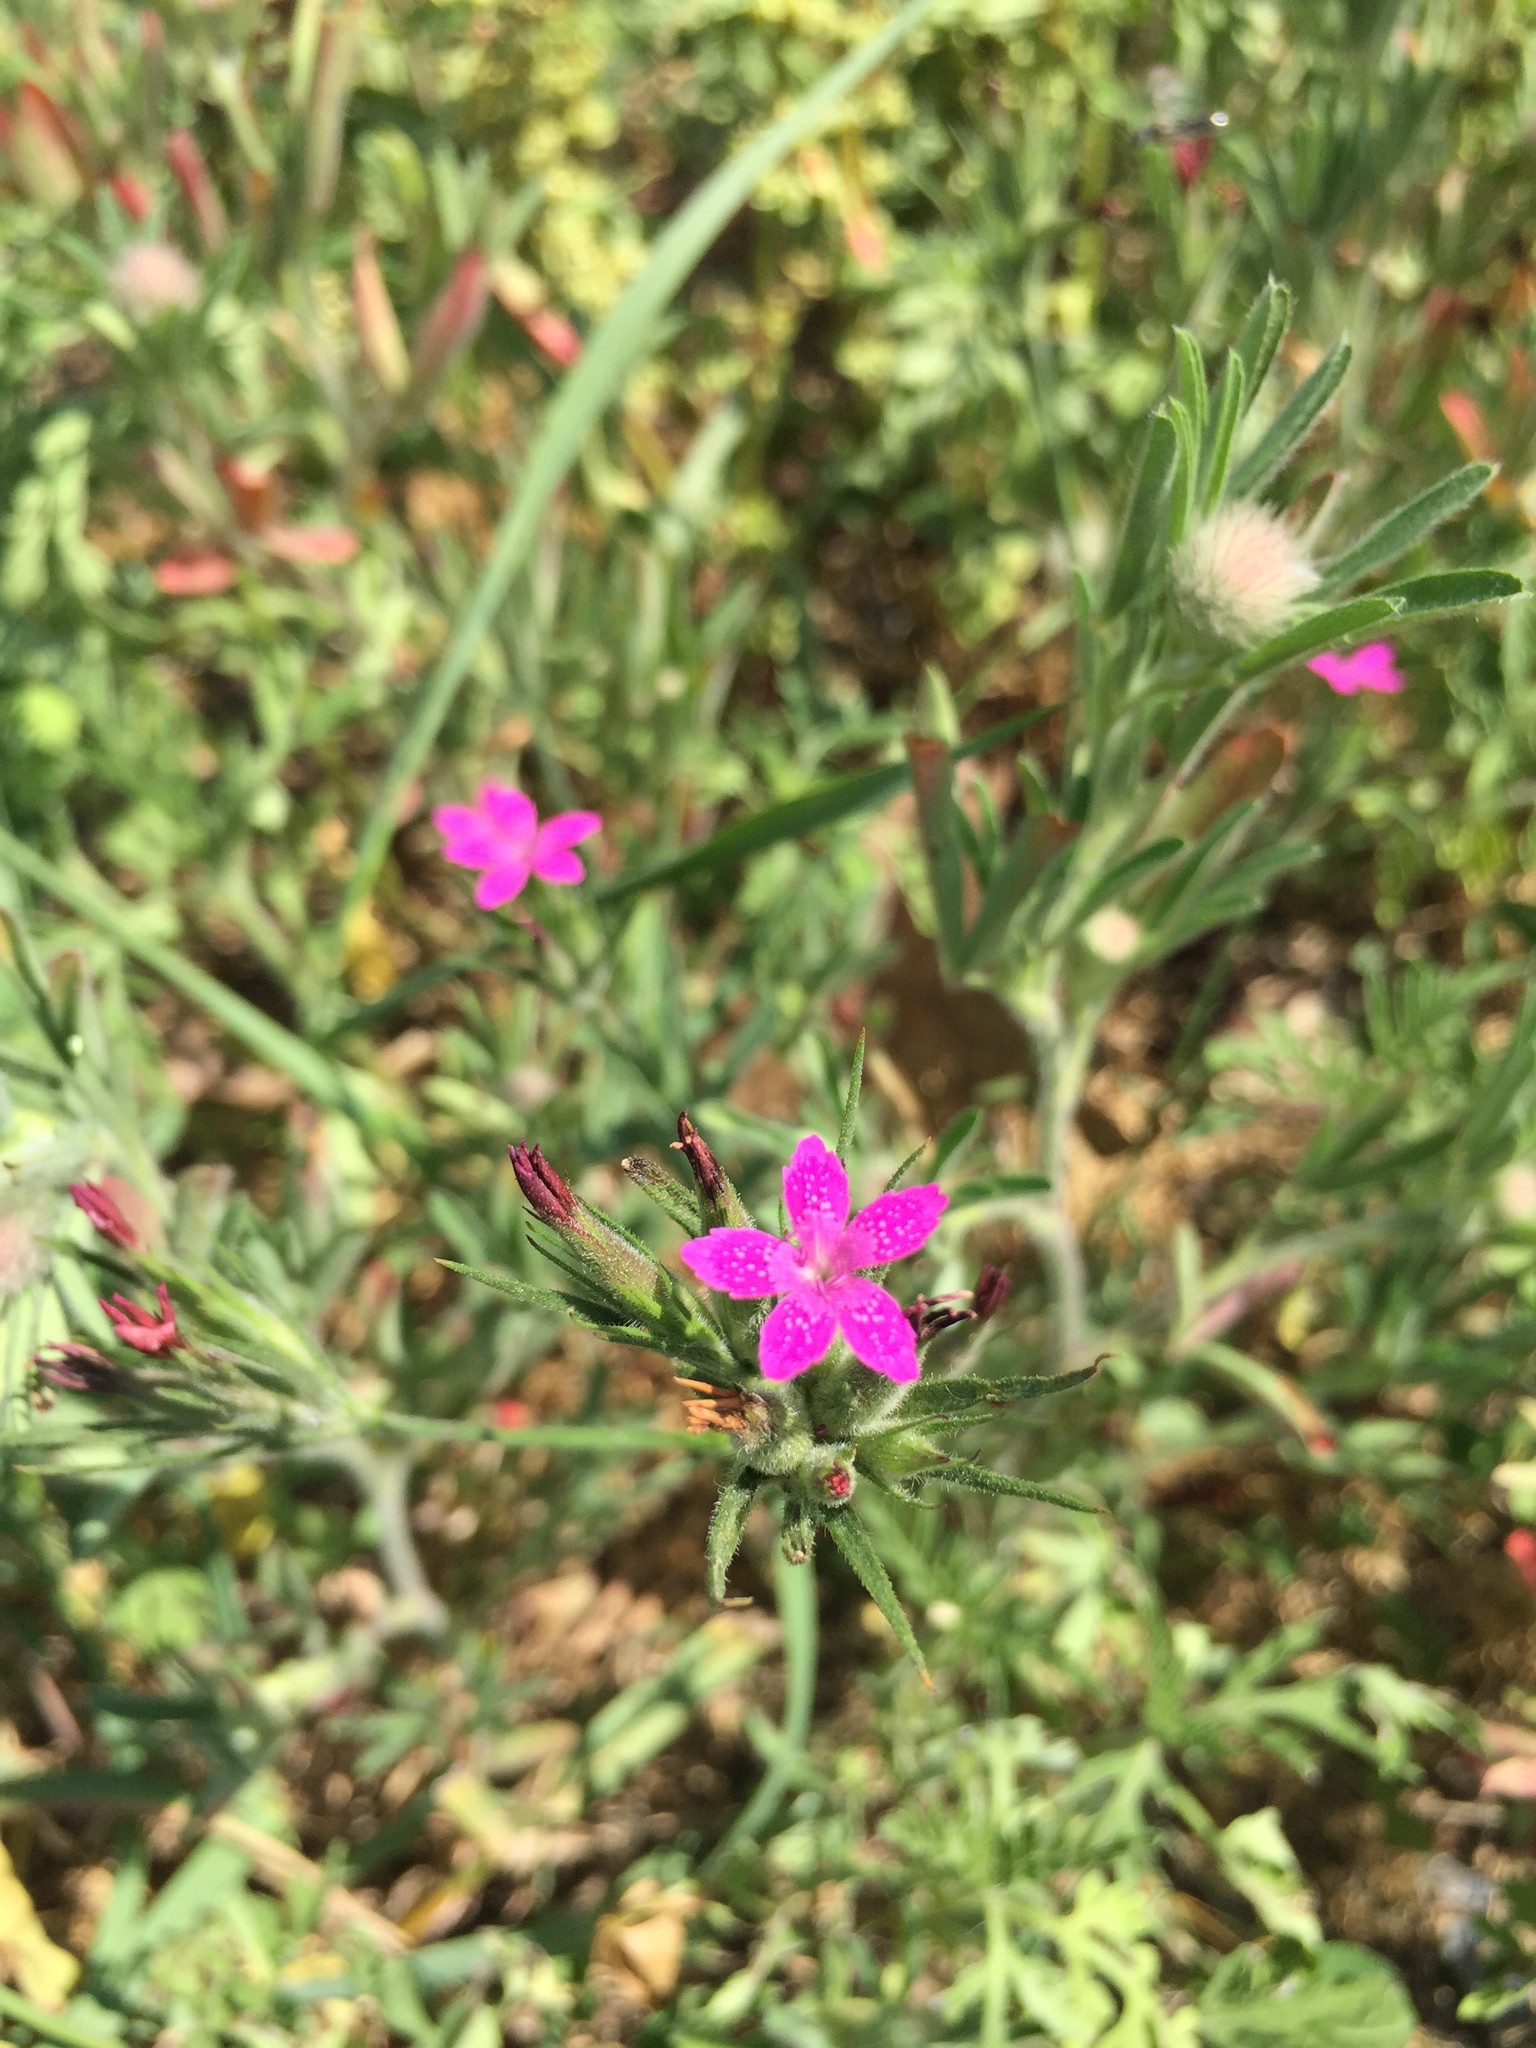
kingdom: Plantae
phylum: Tracheophyta
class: Magnoliopsida
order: Caryophyllales
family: Caryophyllaceae
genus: Dianthus
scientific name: Dianthus armeria
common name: Deptford pink
